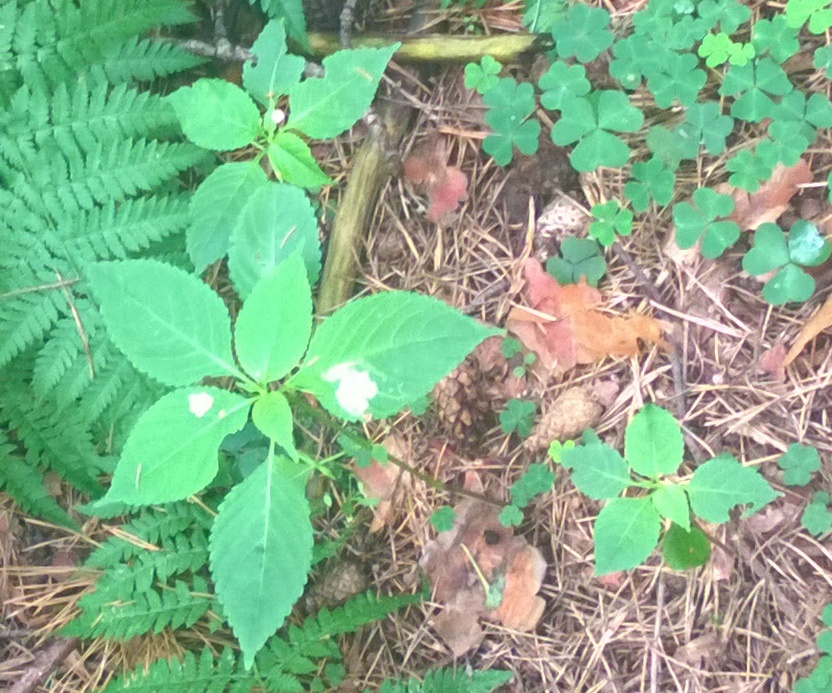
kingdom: Plantae
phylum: Tracheophyta
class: Magnoliopsida
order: Ericales
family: Balsaminaceae
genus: Impatiens
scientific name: Impatiens parviflora
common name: Small balsam
